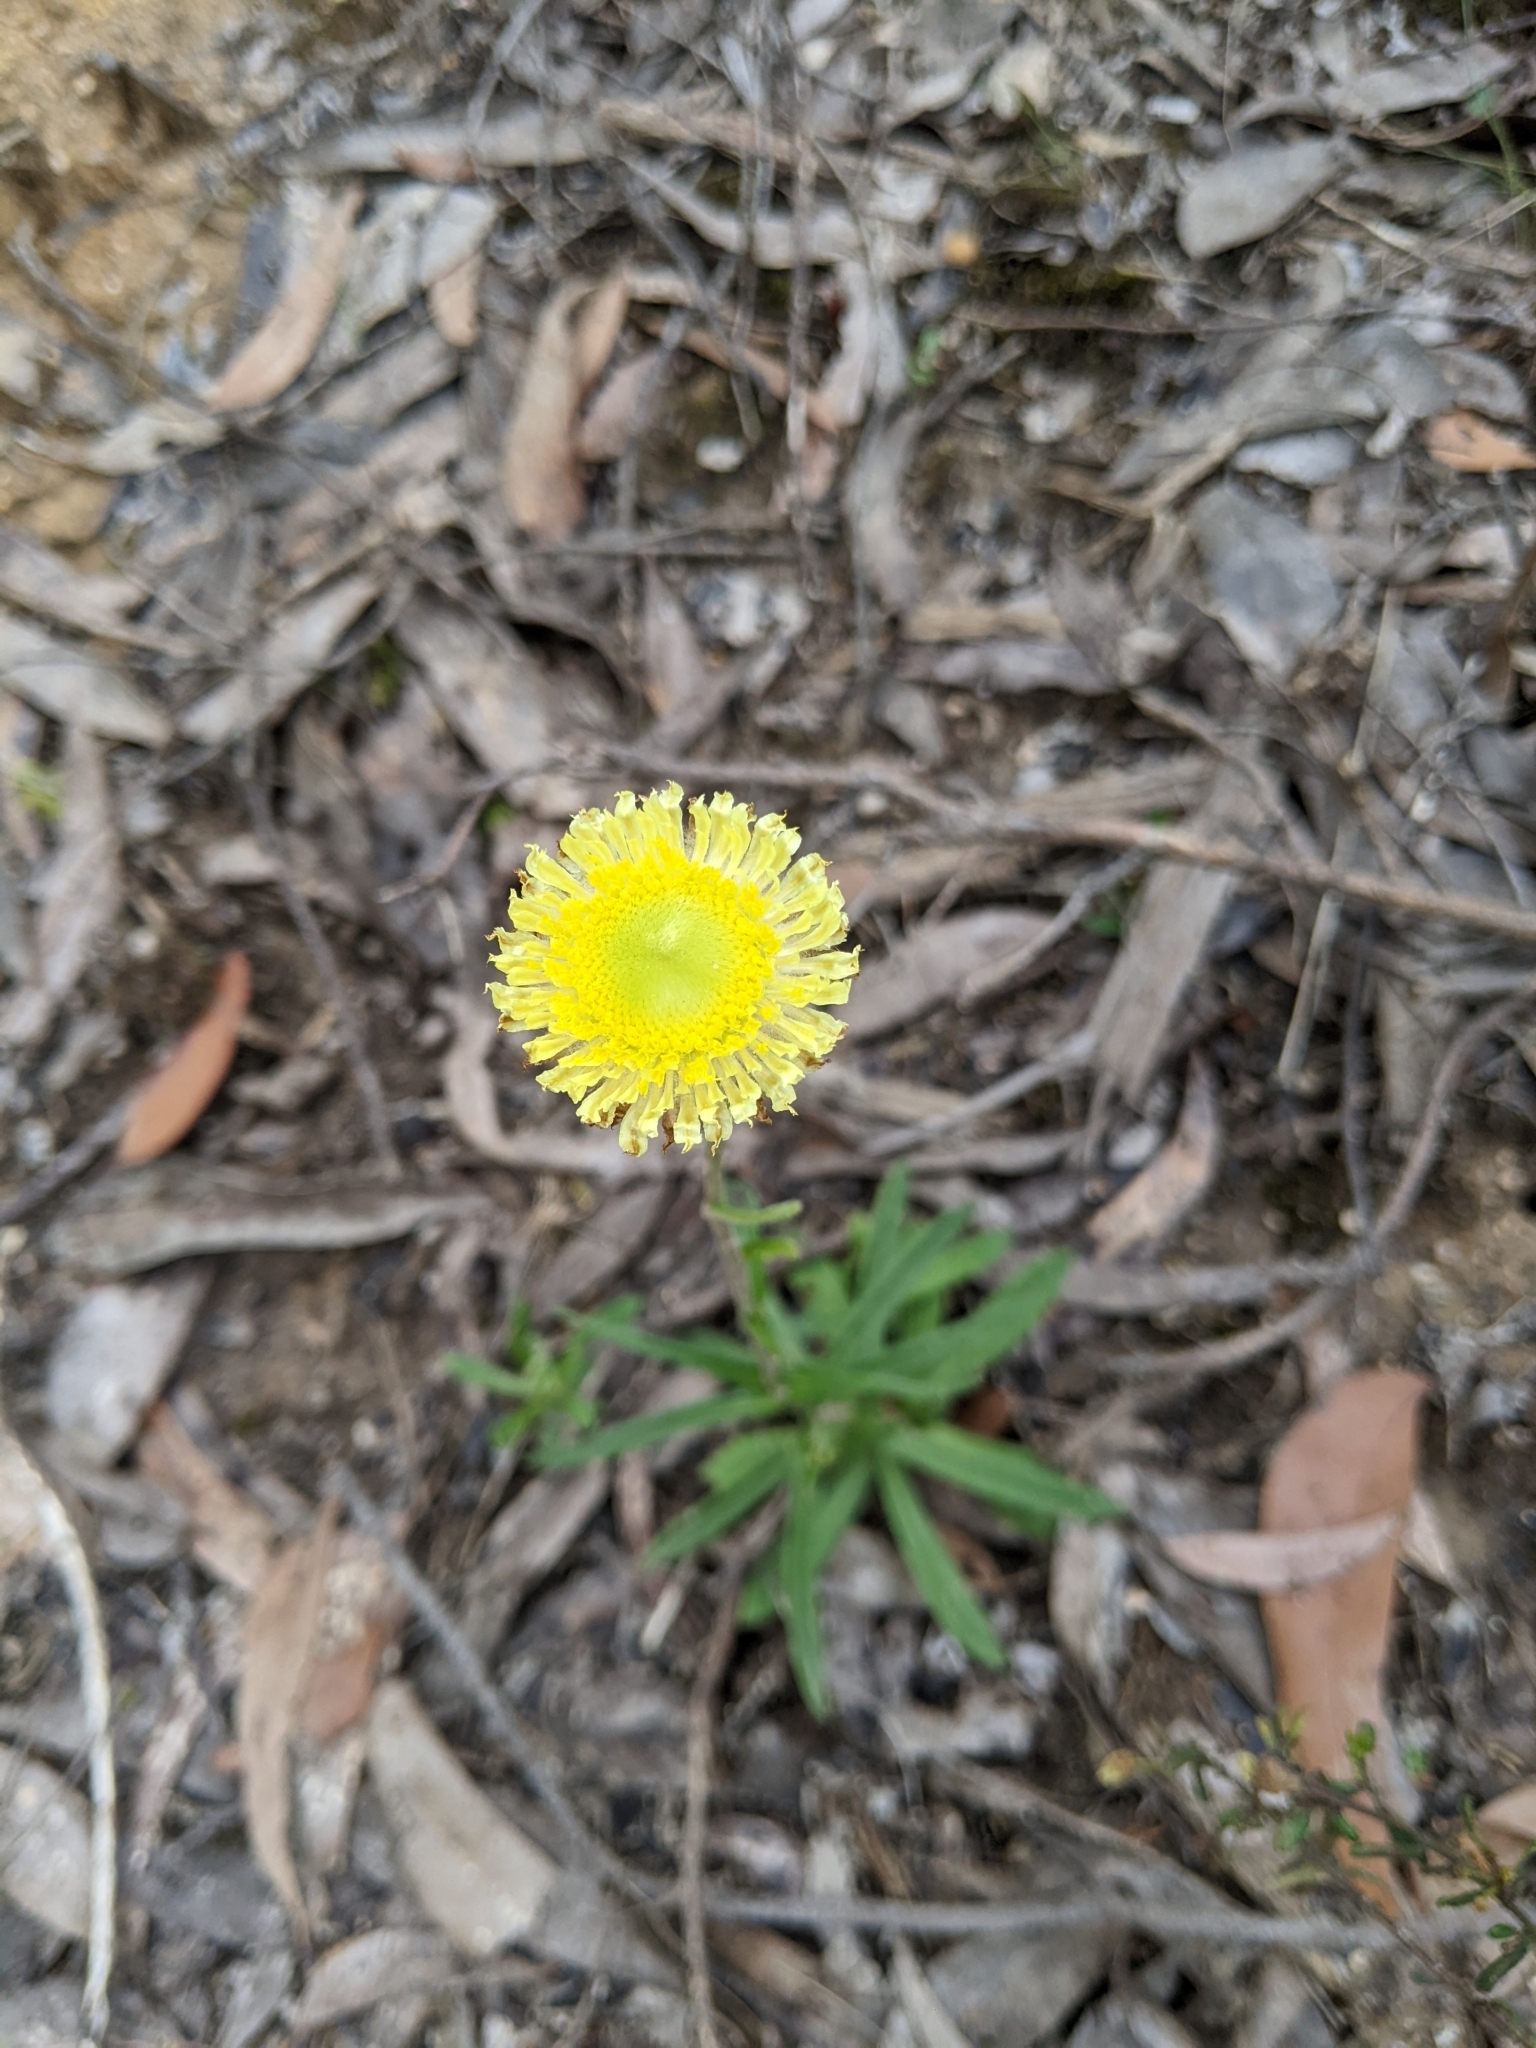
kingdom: Plantae
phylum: Tracheophyta
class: Magnoliopsida
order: Asterales
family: Asteraceae
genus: Coronidium
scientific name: Coronidium scorpioides
